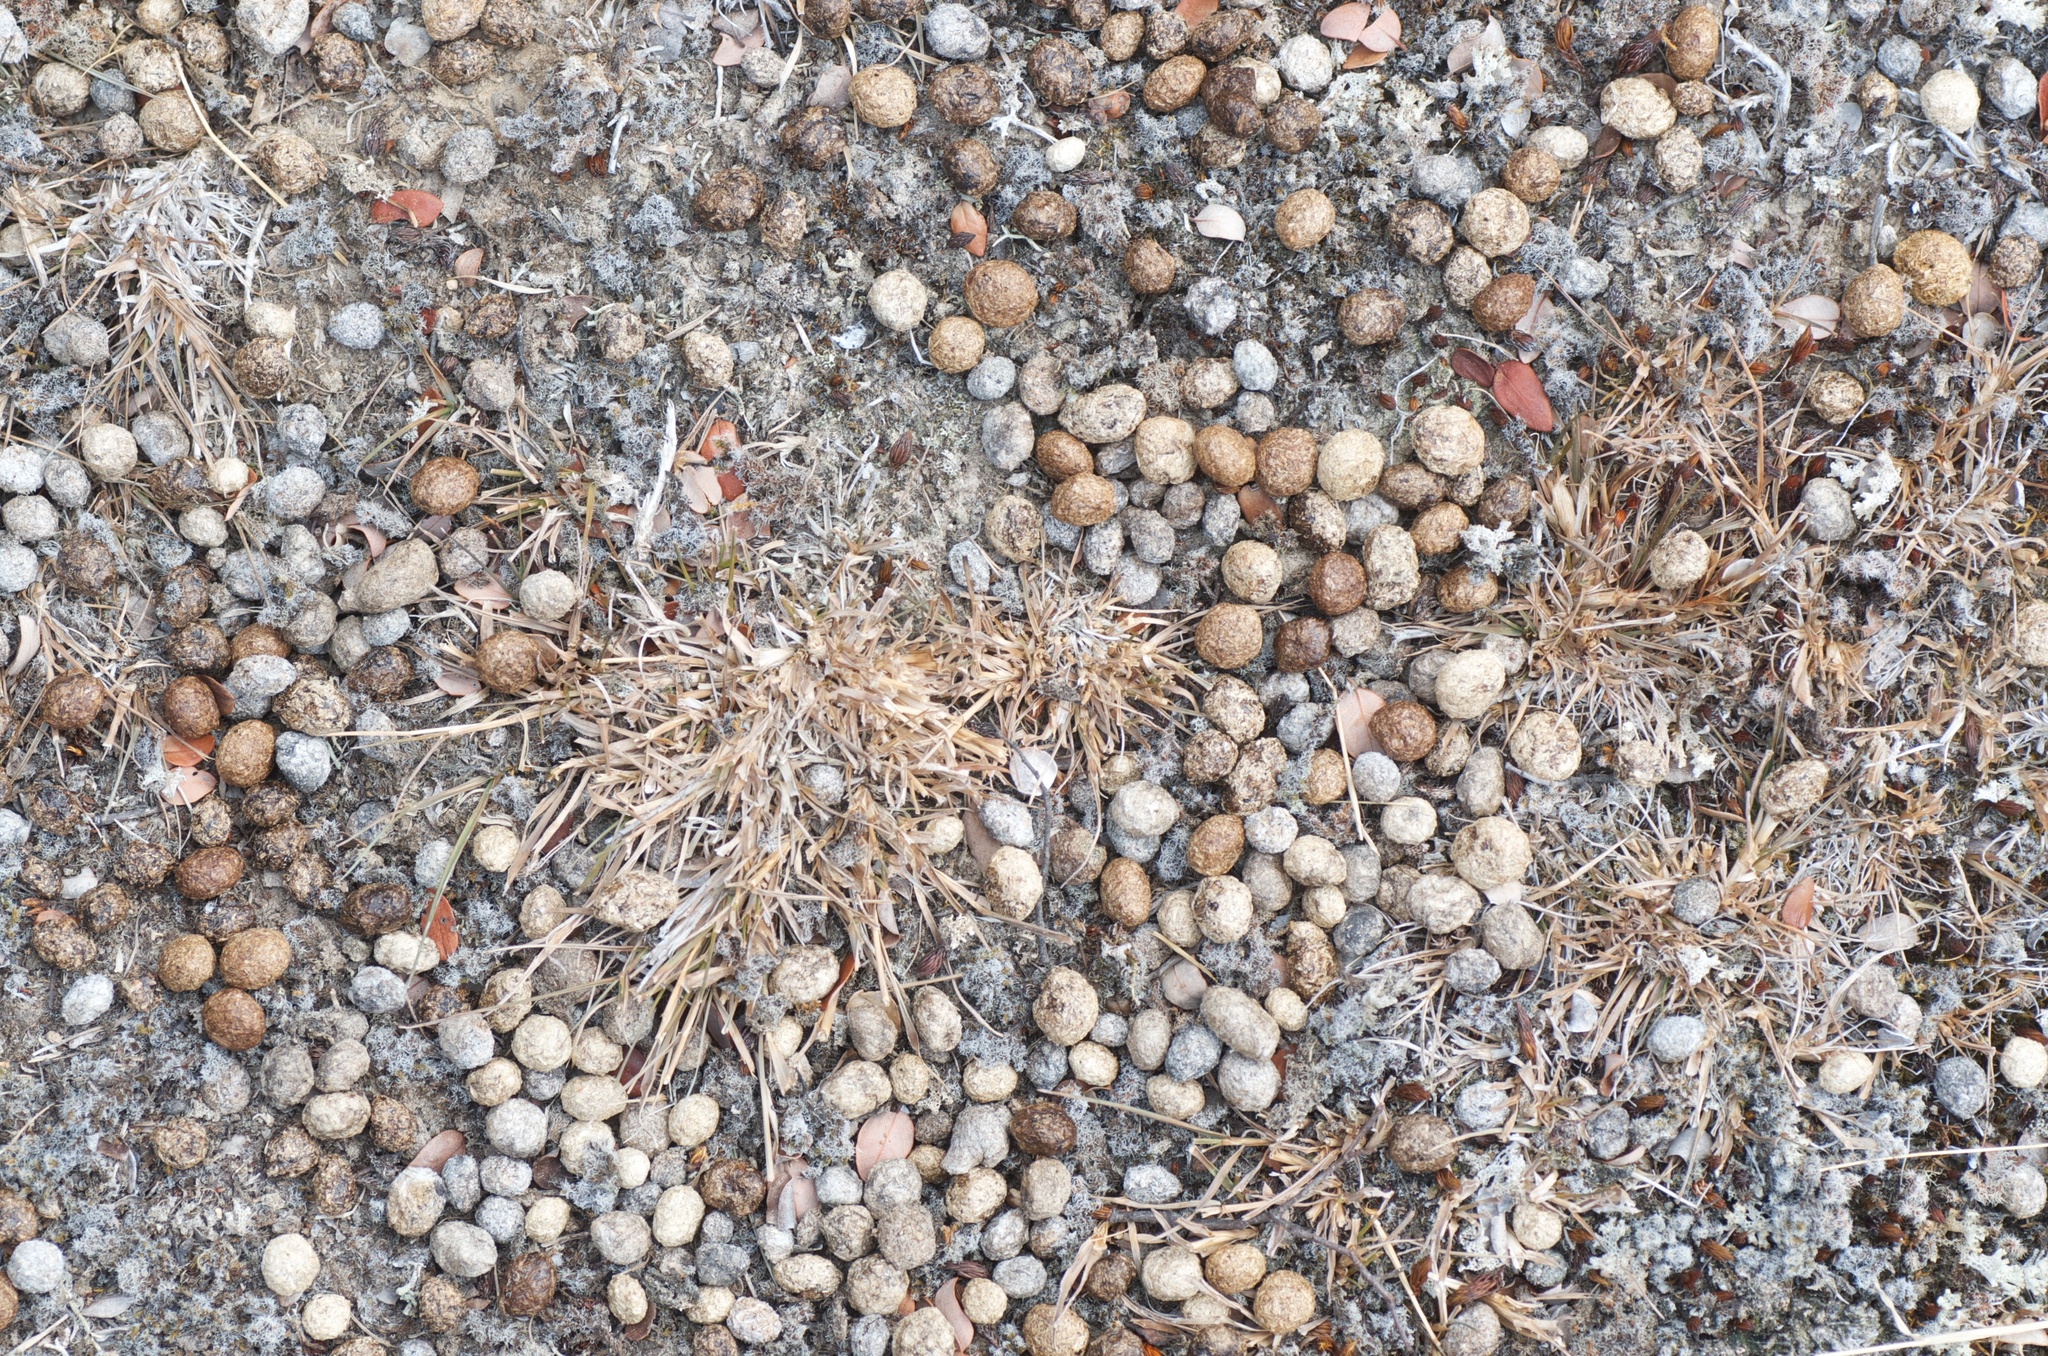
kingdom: Animalia
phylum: Chordata
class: Mammalia
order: Lagomorpha
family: Leporidae
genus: Oryctolagus
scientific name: Oryctolagus cuniculus
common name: European rabbit
